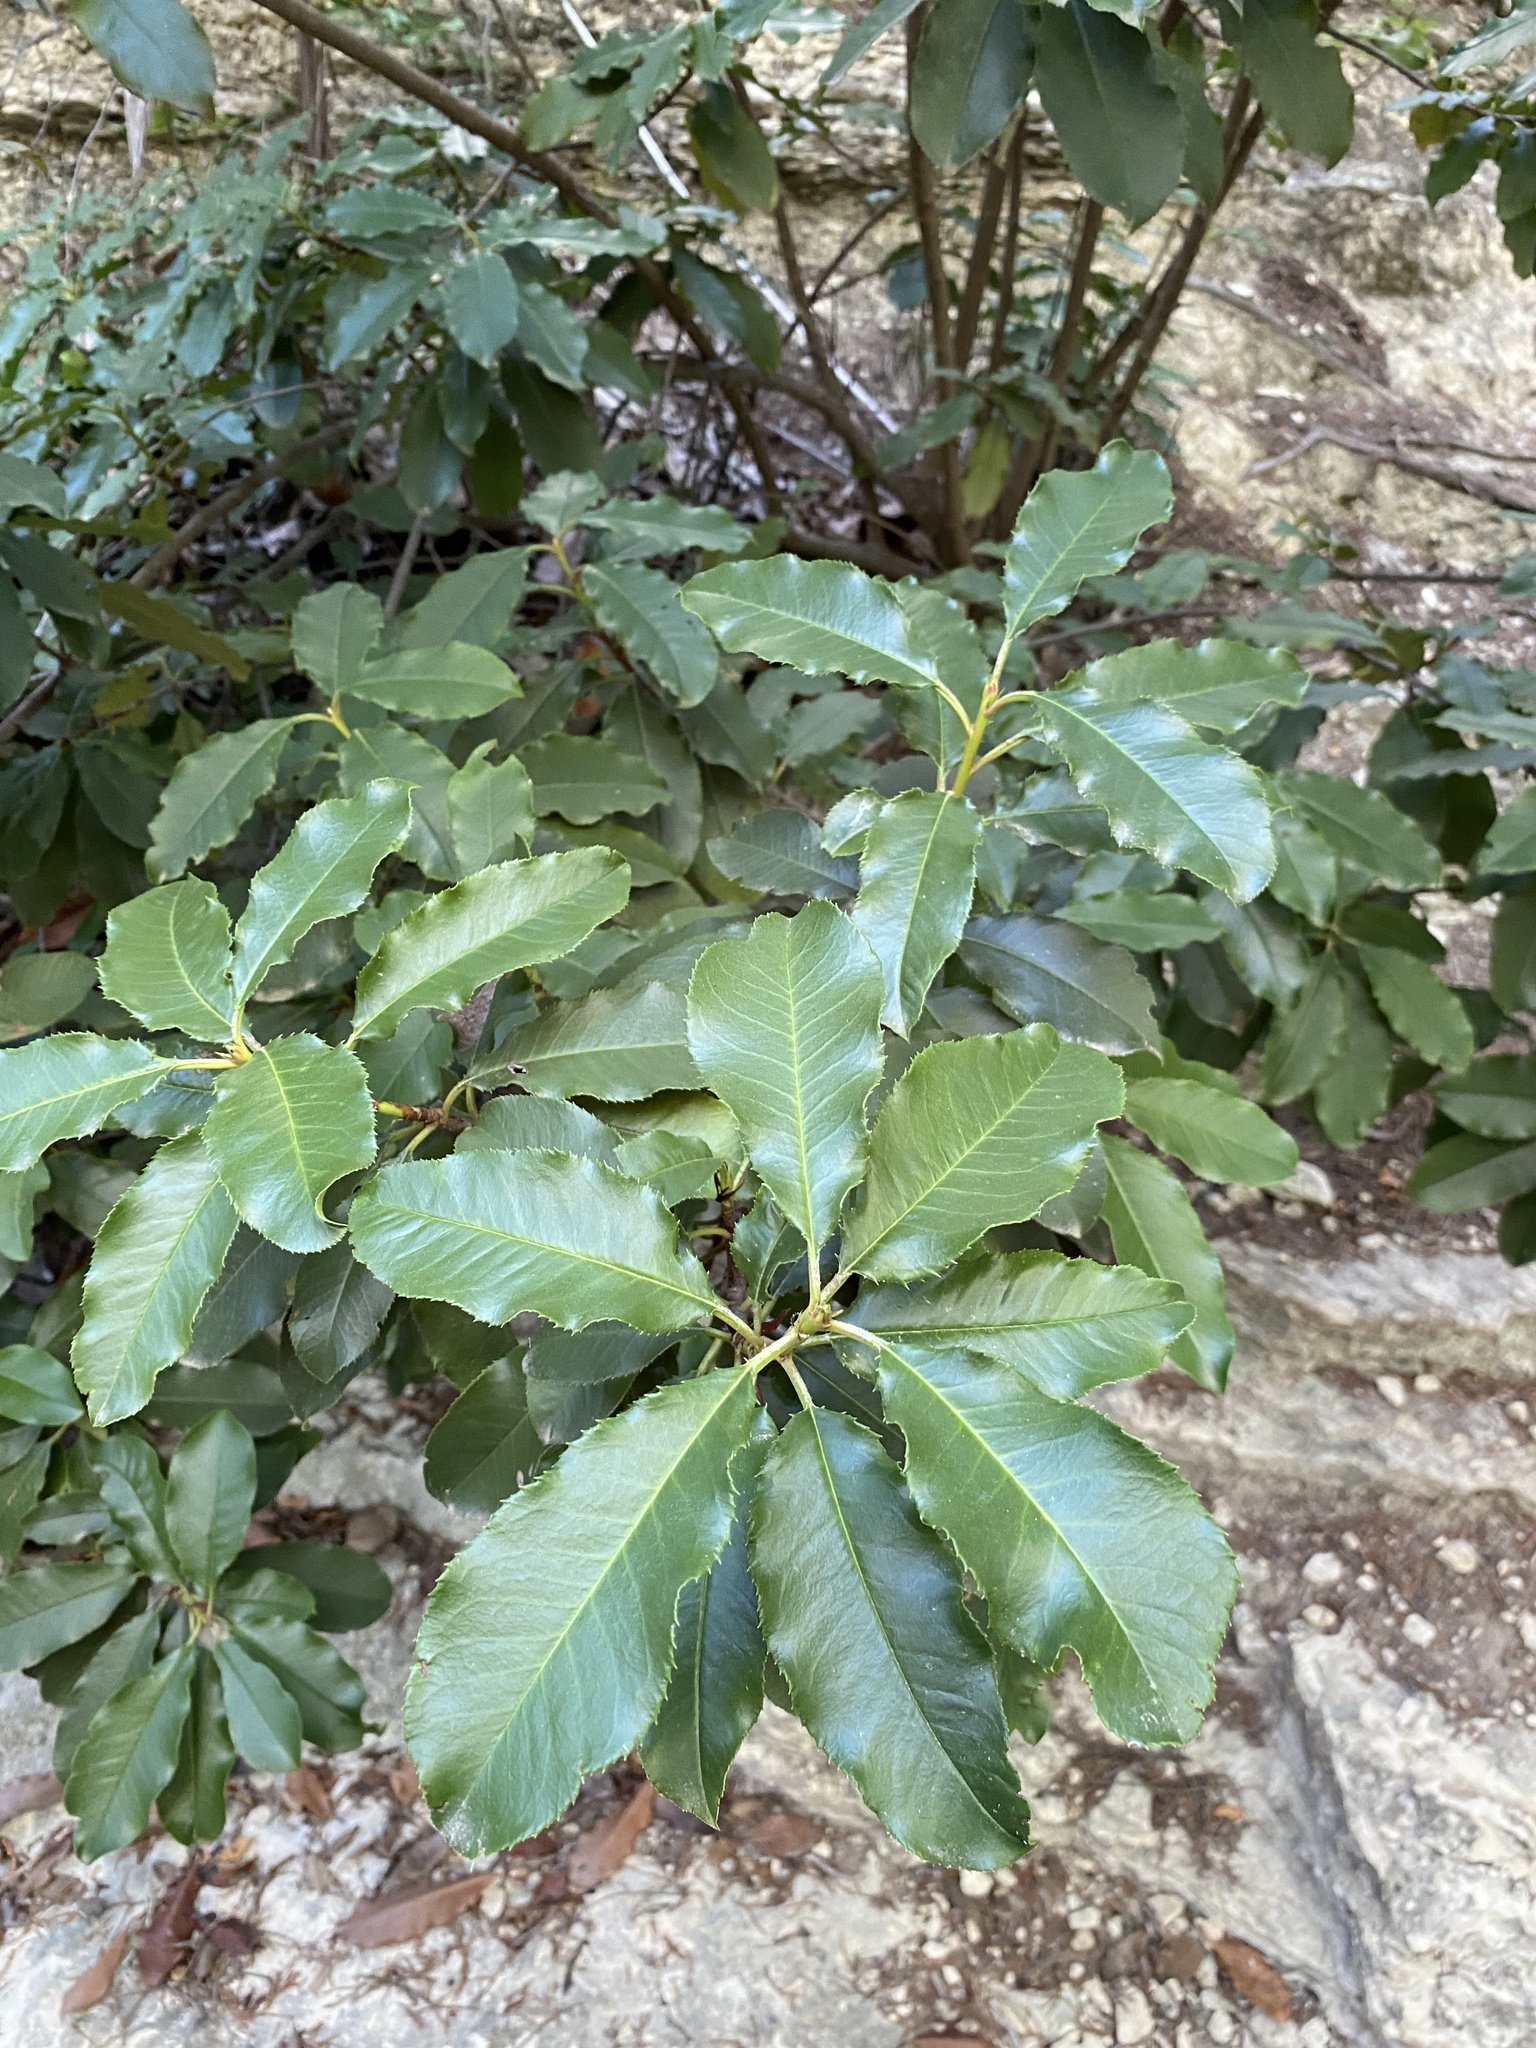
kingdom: Plantae
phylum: Tracheophyta
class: Magnoliopsida
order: Rosales
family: Rosaceae
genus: Photinia
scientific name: Photinia serratifolia
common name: Taiwanese photinia
